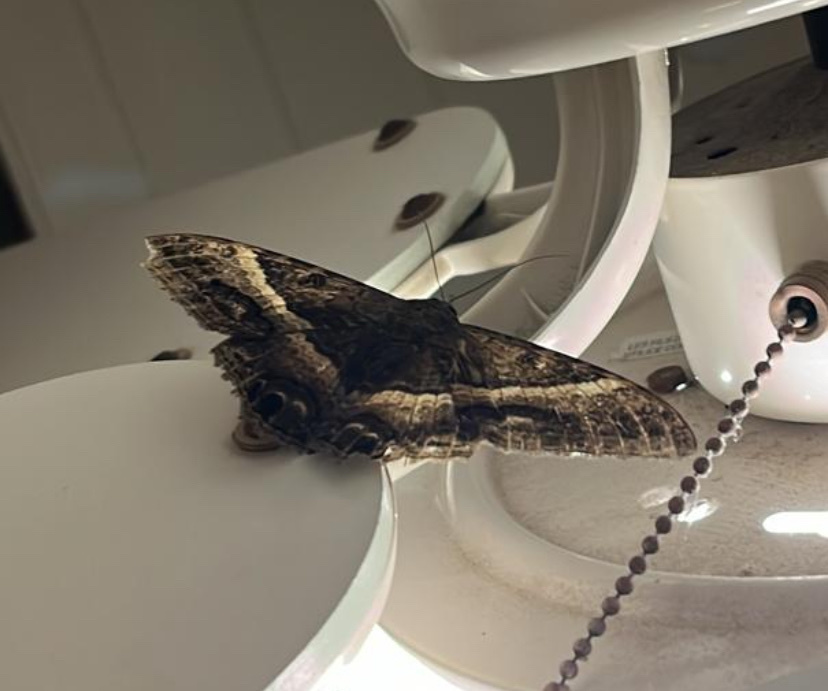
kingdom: Animalia
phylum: Arthropoda
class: Insecta
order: Lepidoptera
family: Erebidae
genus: Ascalapha
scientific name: Ascalapha odorata
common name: Black witch
